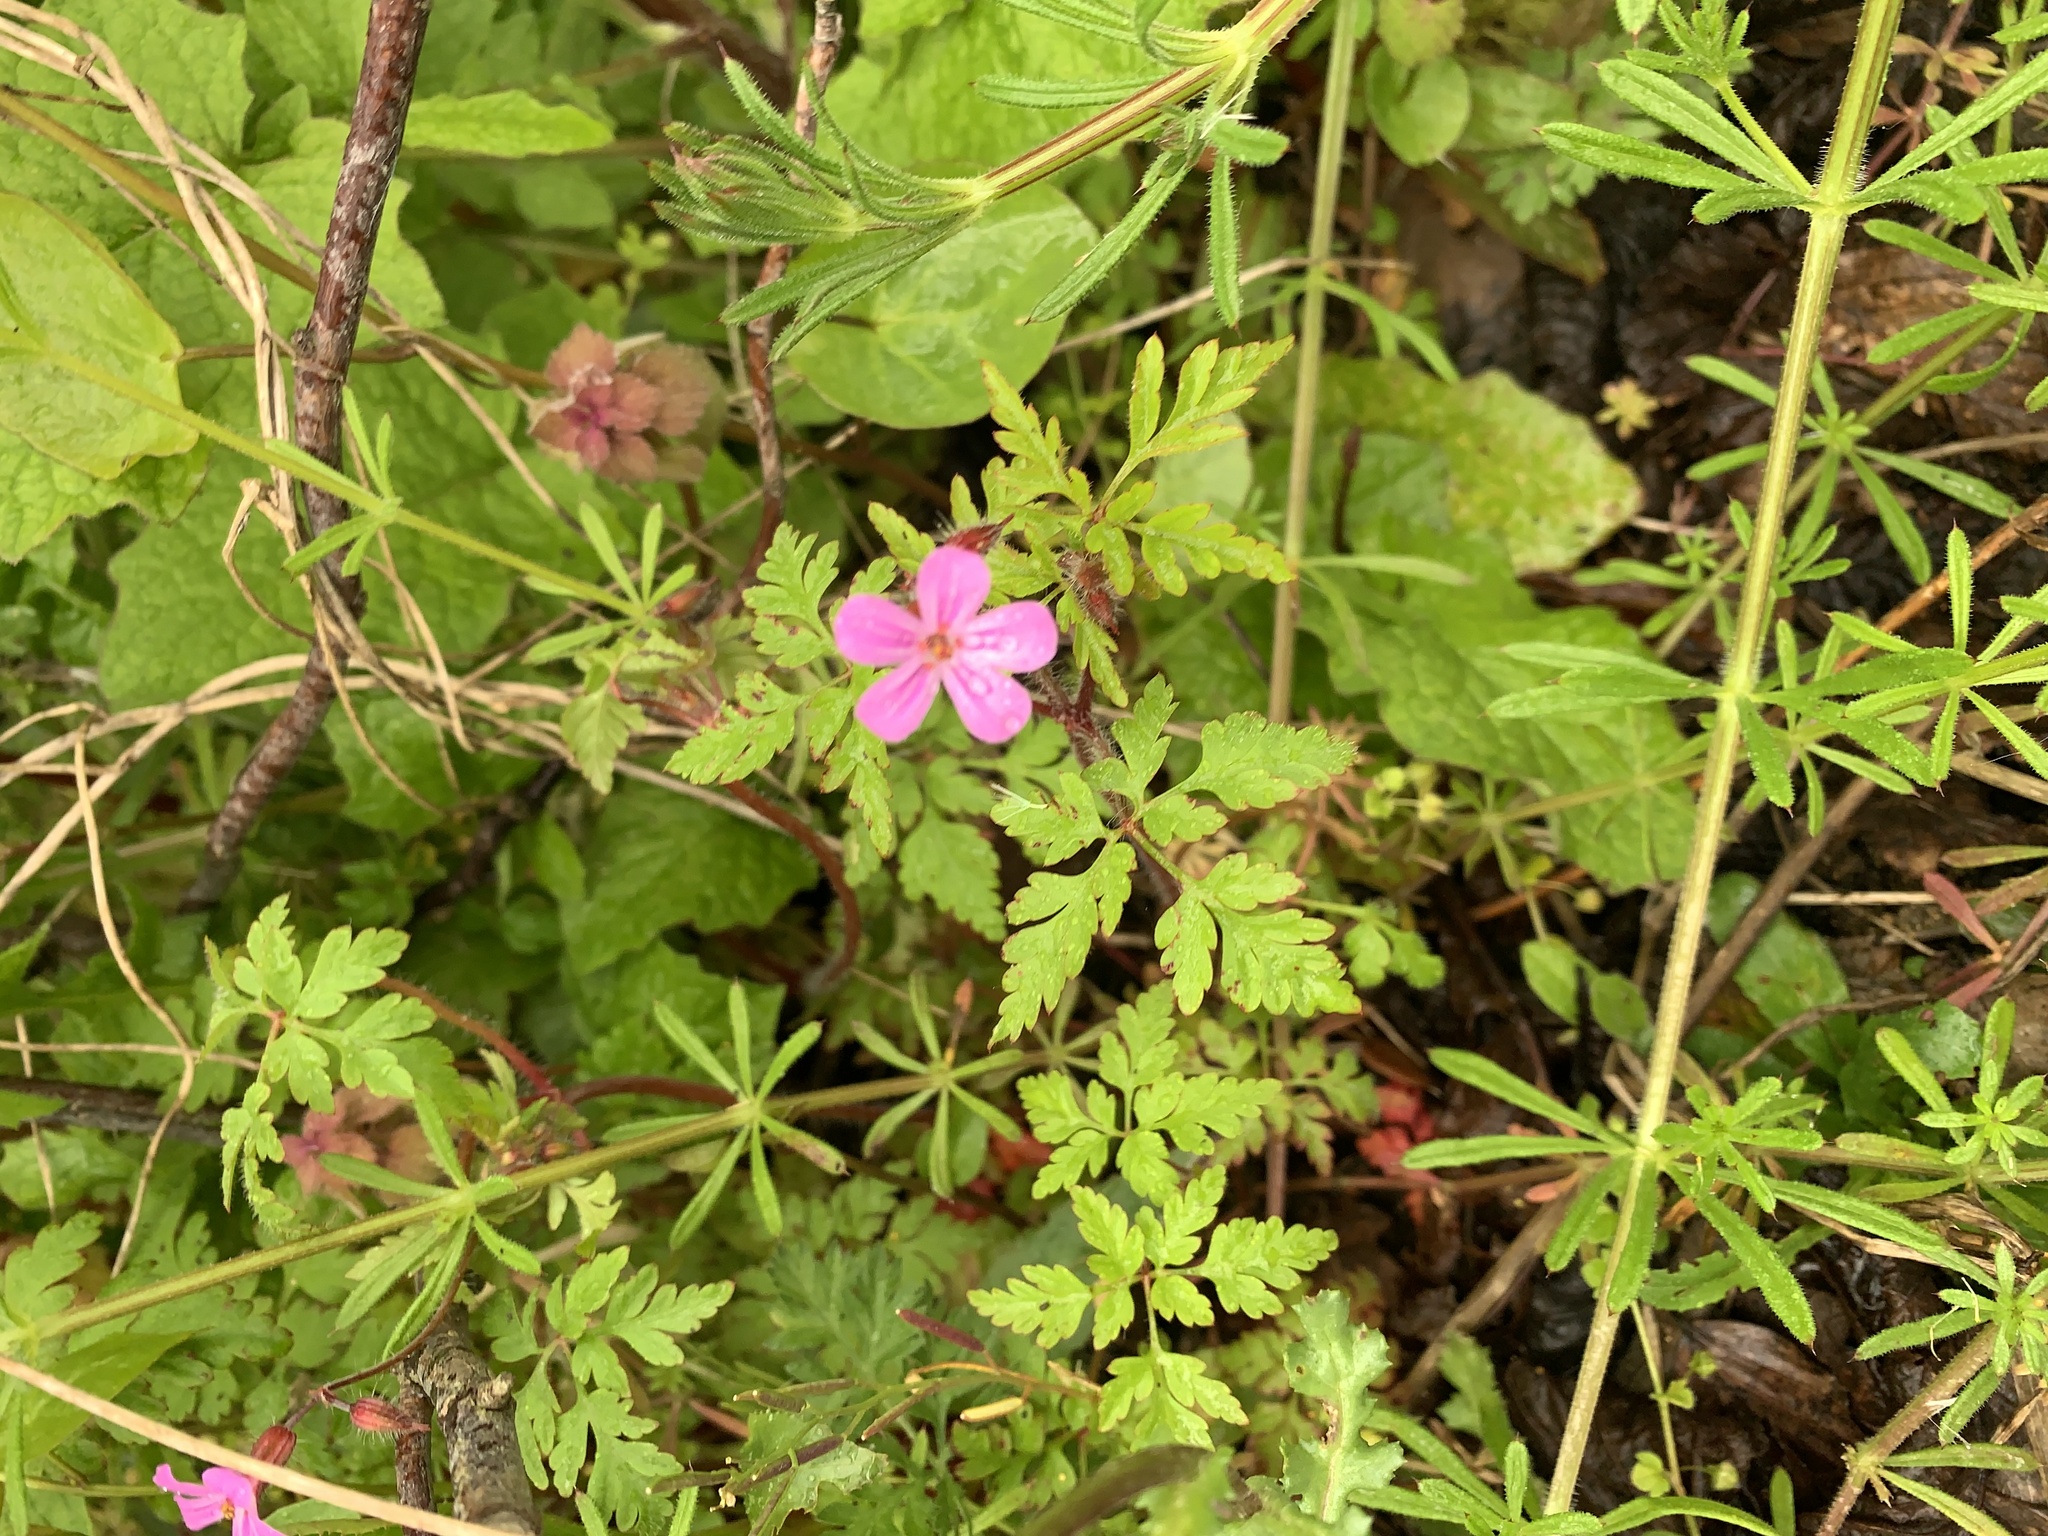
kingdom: Plantae
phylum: Tracheophyta
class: Magnoliopsida
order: Geraniales
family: Geraniaceae
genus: Geranium
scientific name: Geranium robertianum
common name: Herb-robert
